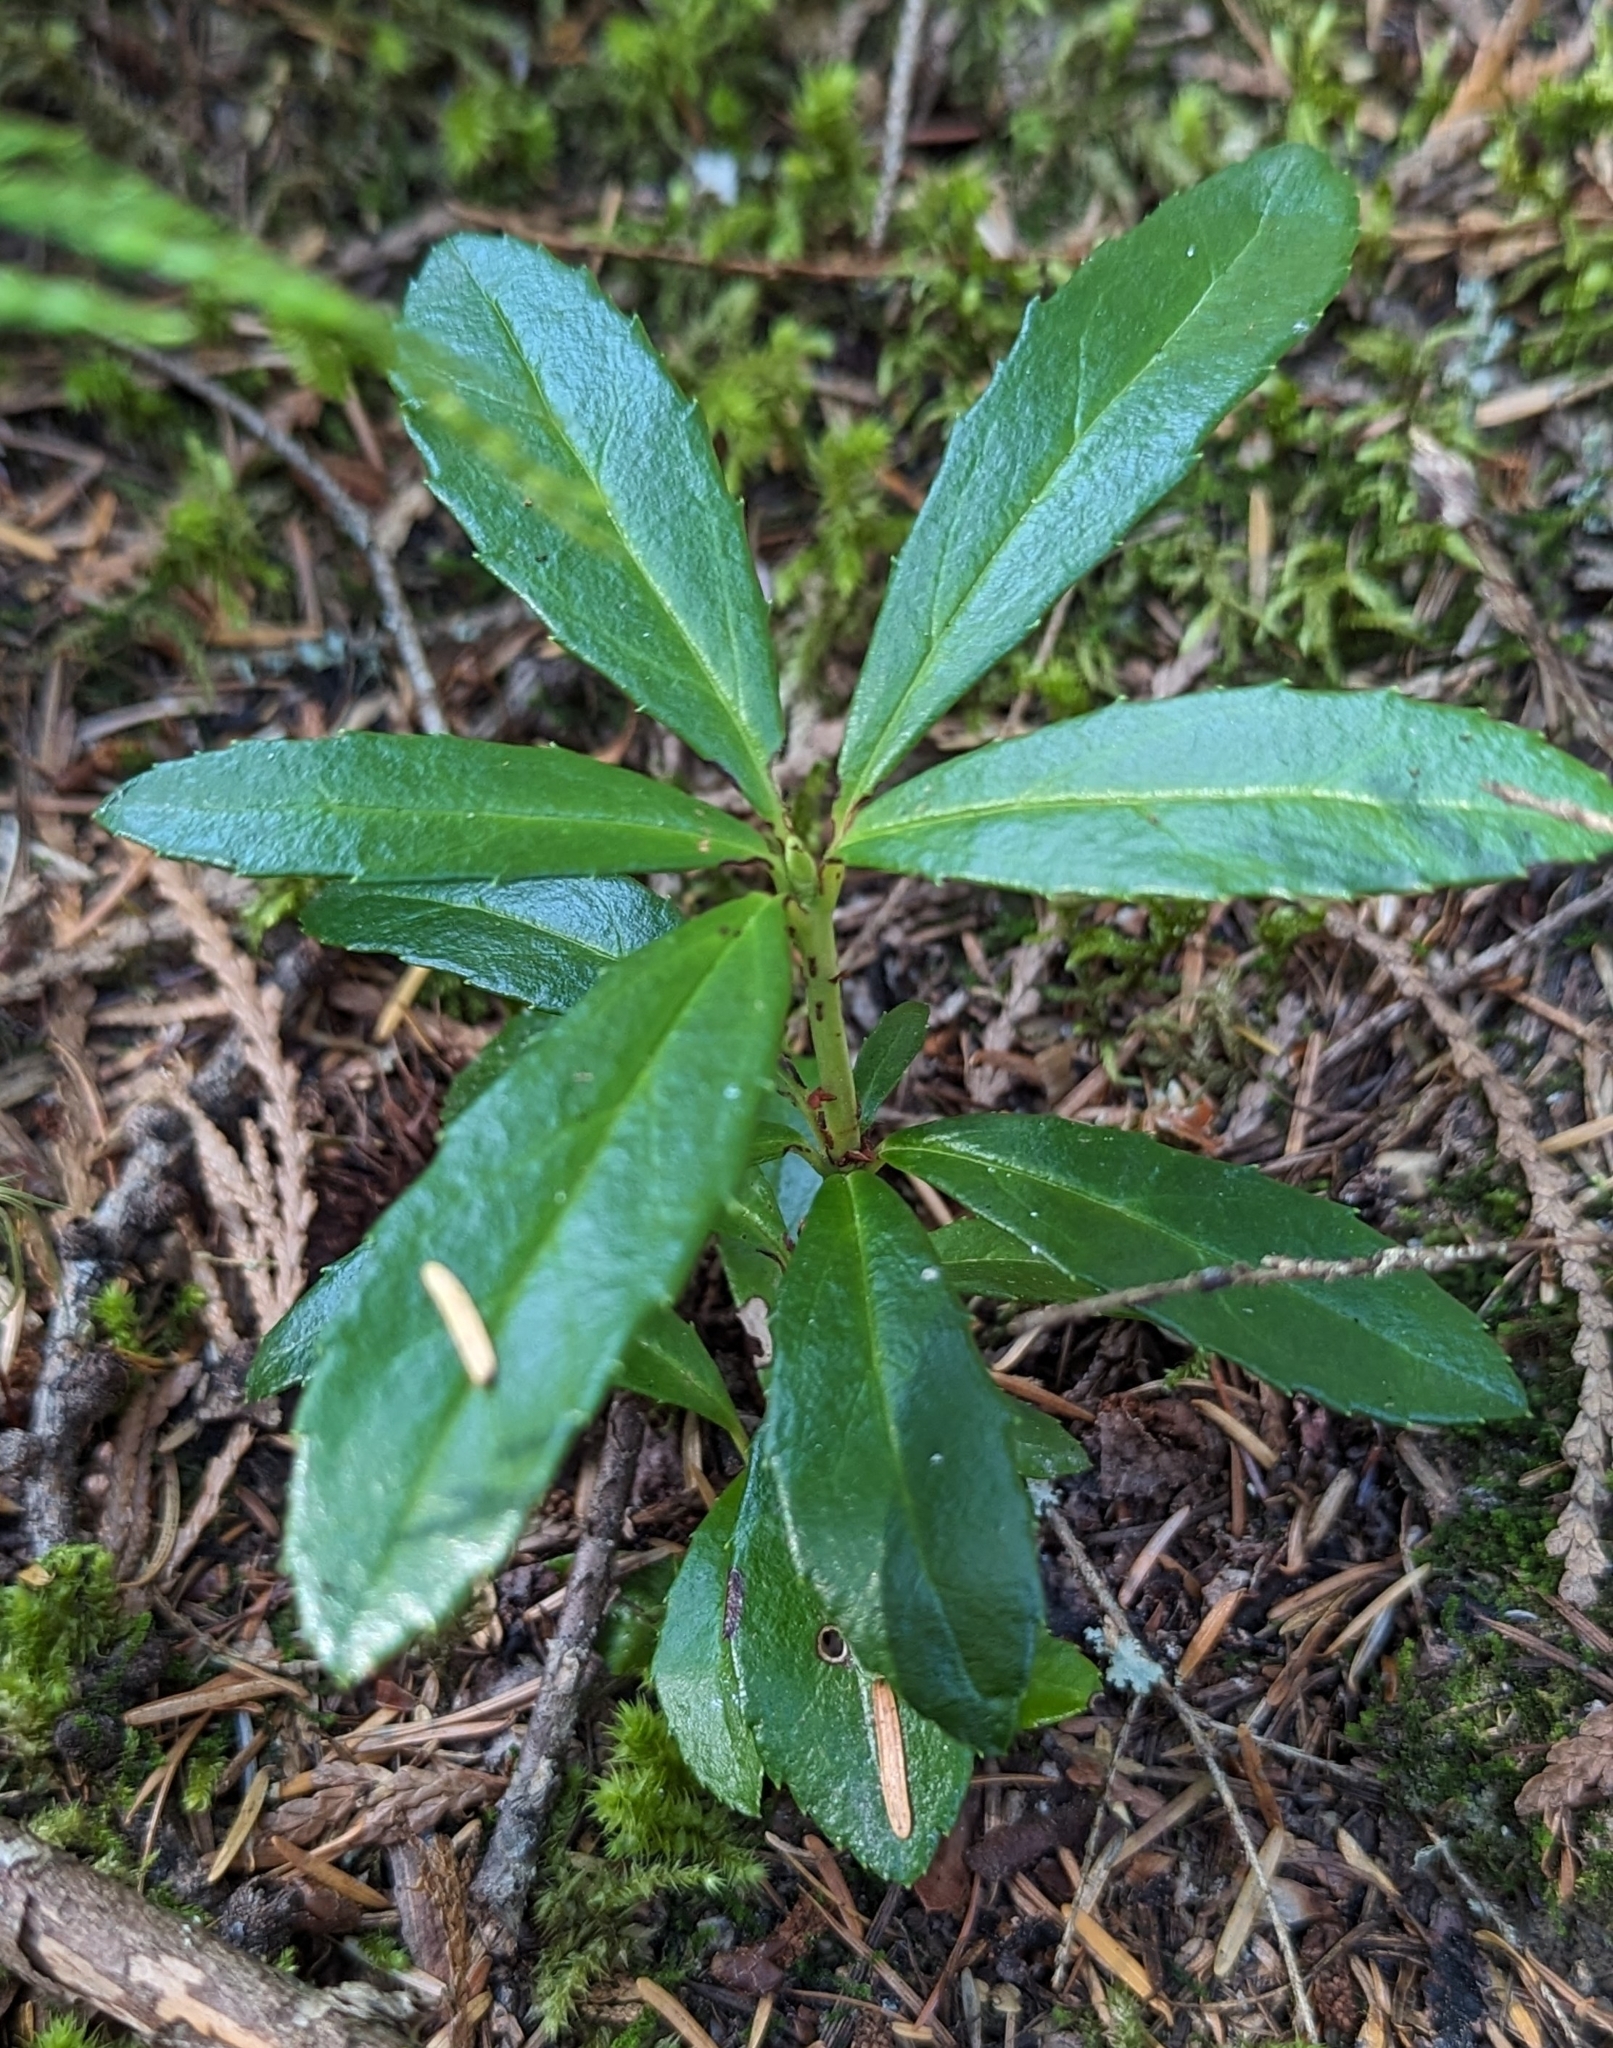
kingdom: Plantae
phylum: Tracheophyta
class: Magnoliopsida
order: Ericales
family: Ericaceae
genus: Chimaphila
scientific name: Chimaphila umbellata
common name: Pipsissewa
